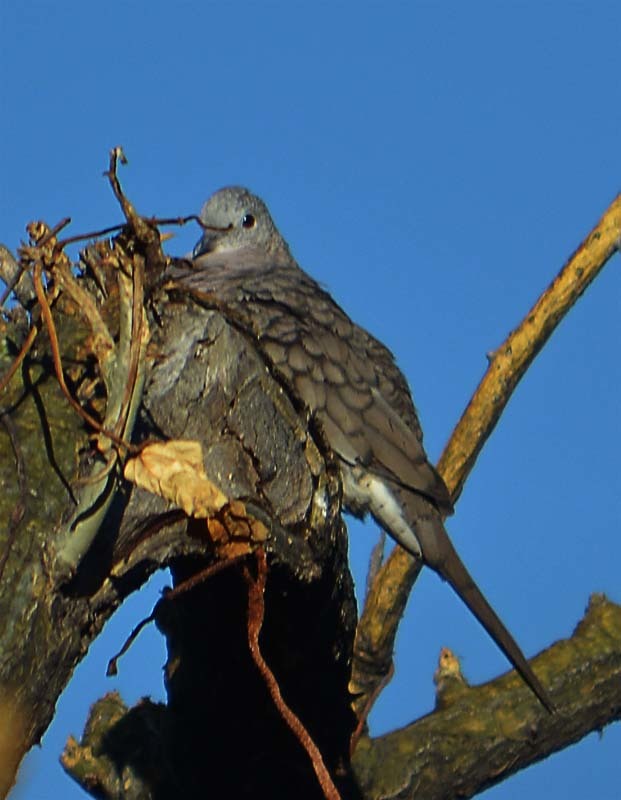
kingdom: Animalia
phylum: Chordata
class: Aves
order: Columbiformes
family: Columbidae
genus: Columbina
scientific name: Columbina inca
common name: Inca dove
